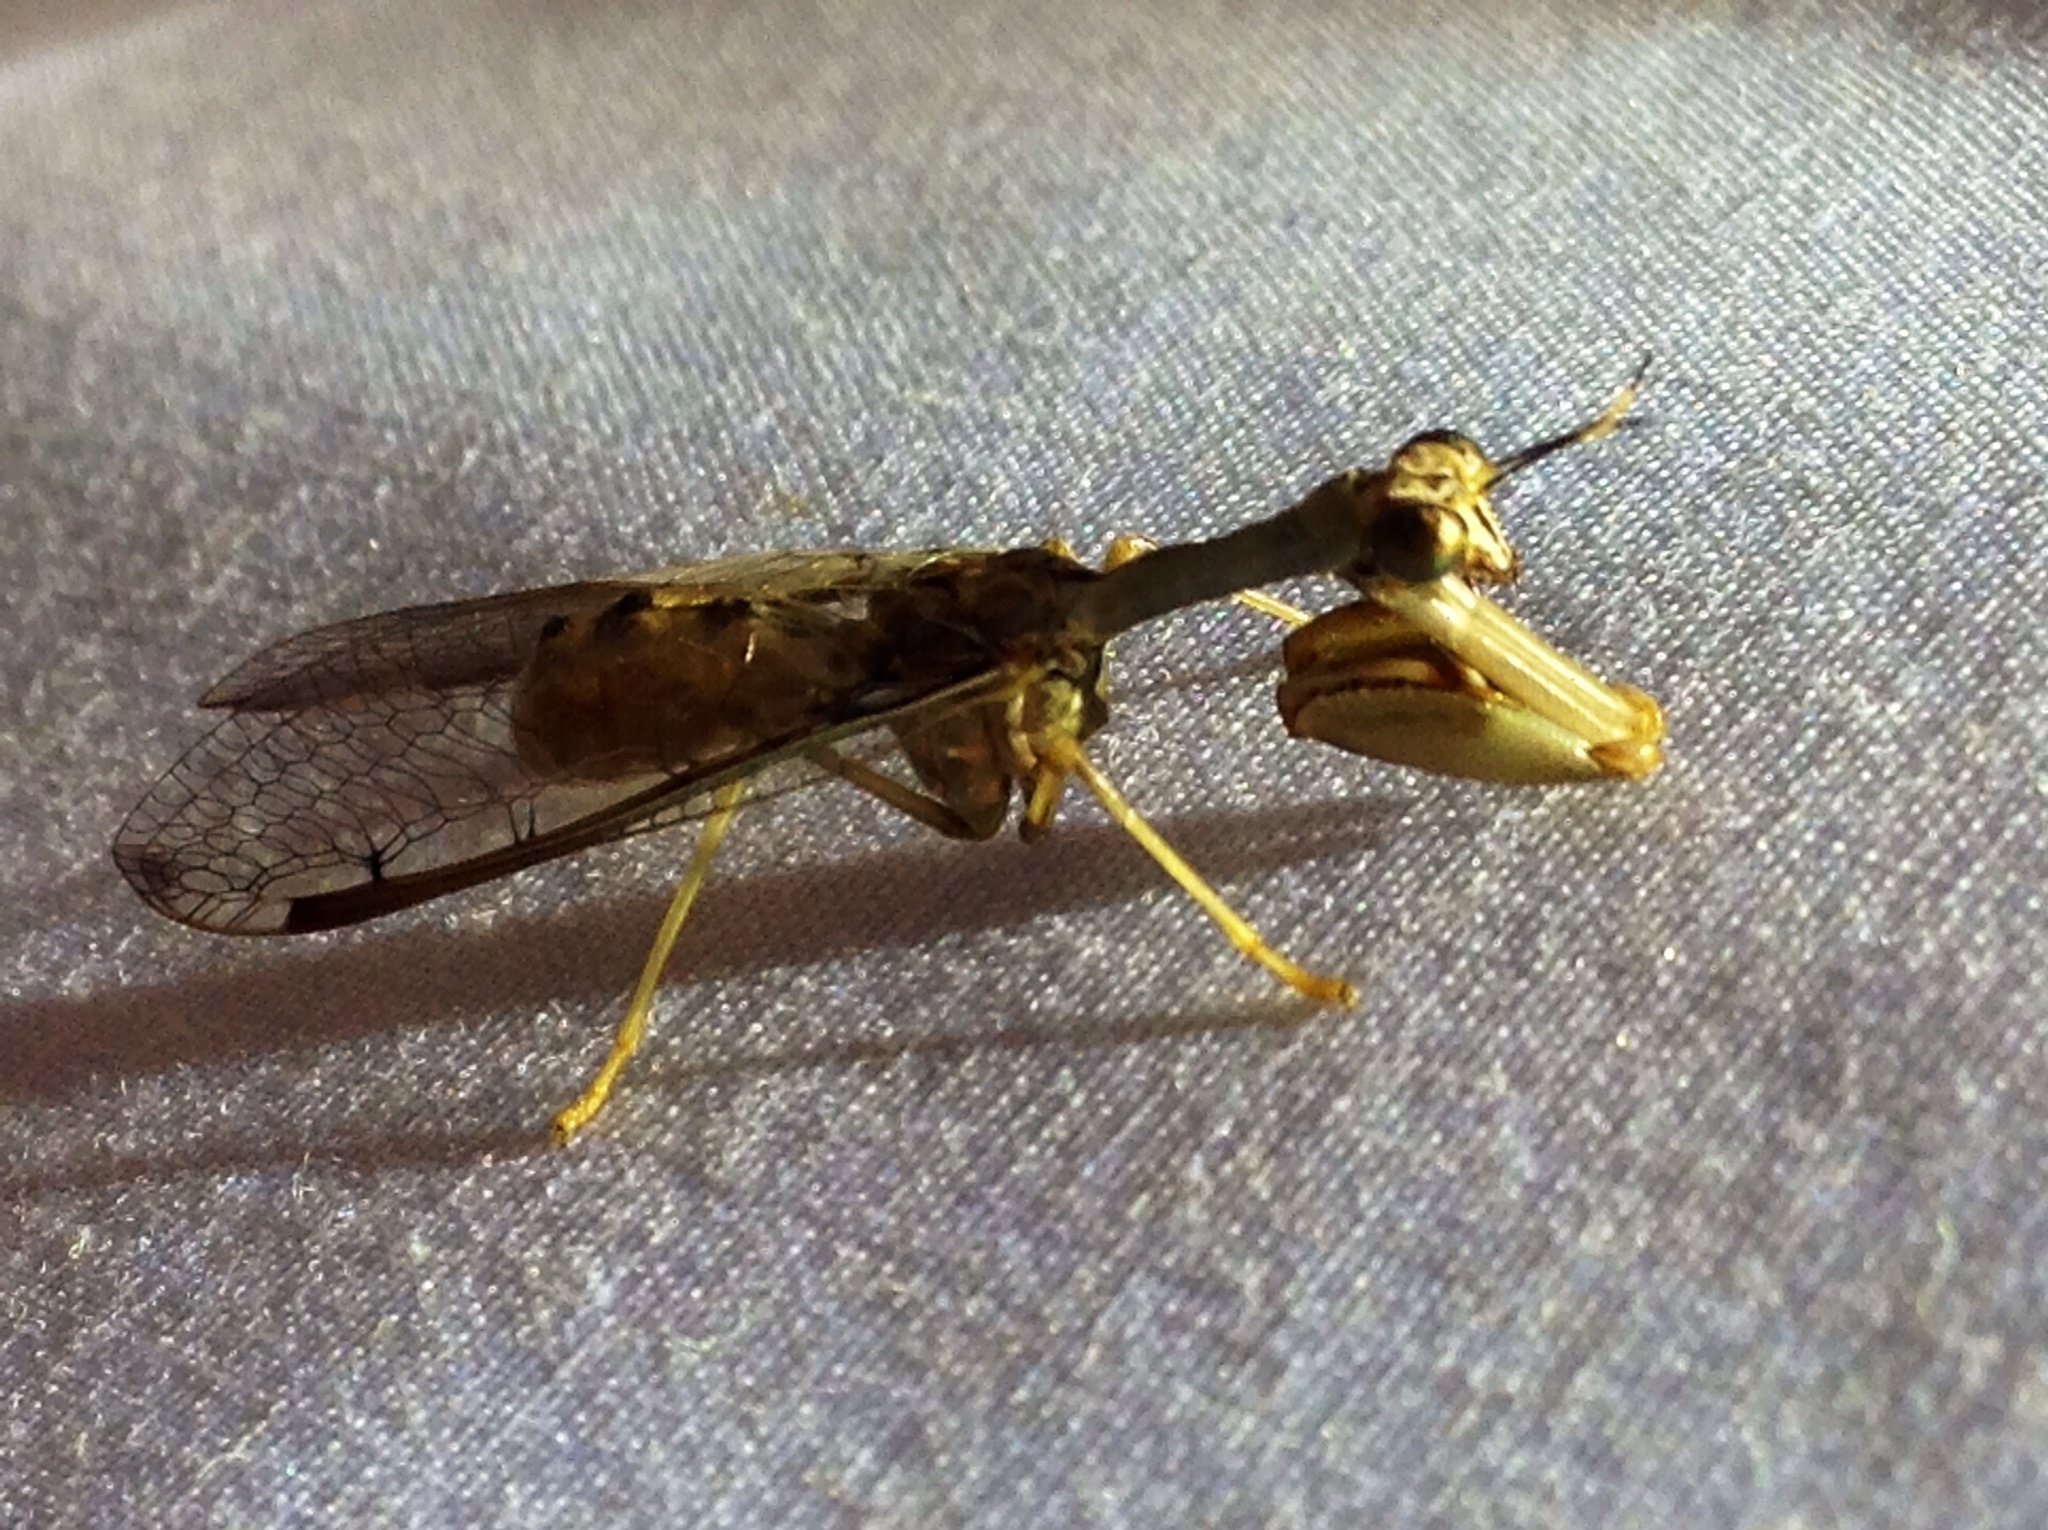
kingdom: Animalia
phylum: Arthropoda
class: Insecta
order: Neuroptera
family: Mantispidae
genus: Dicromantispa
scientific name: Dicromantispa interrupta
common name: Four-spotted mantidfly
